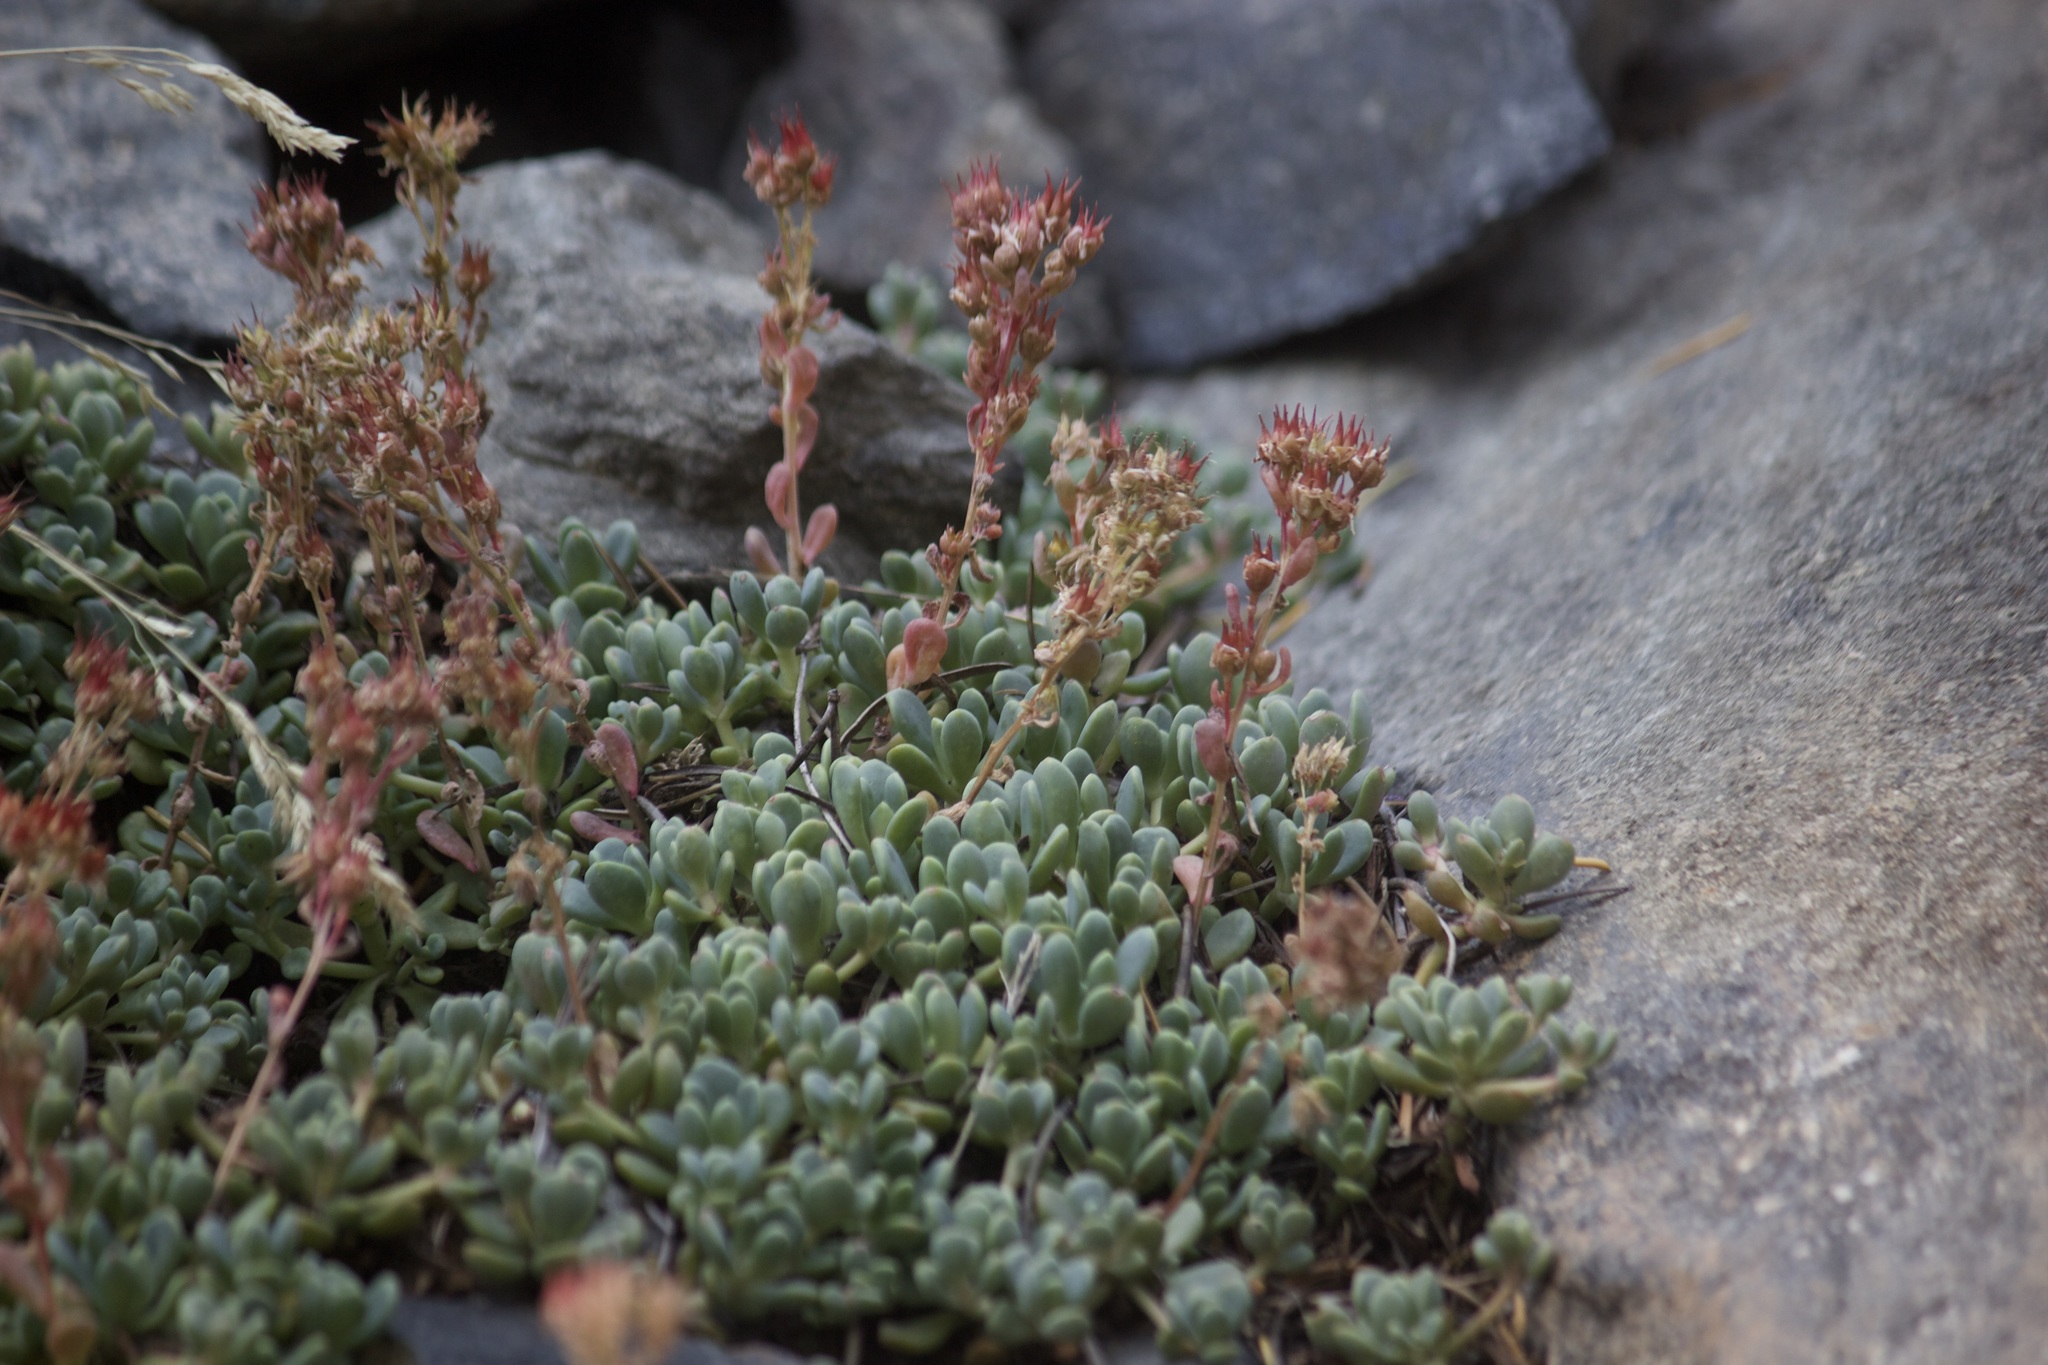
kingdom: Plantae
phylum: Tracheophyta
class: Magnoliopsida
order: Saxifragales
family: Crassulaceae
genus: Sedum
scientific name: Sedum obtusatum
